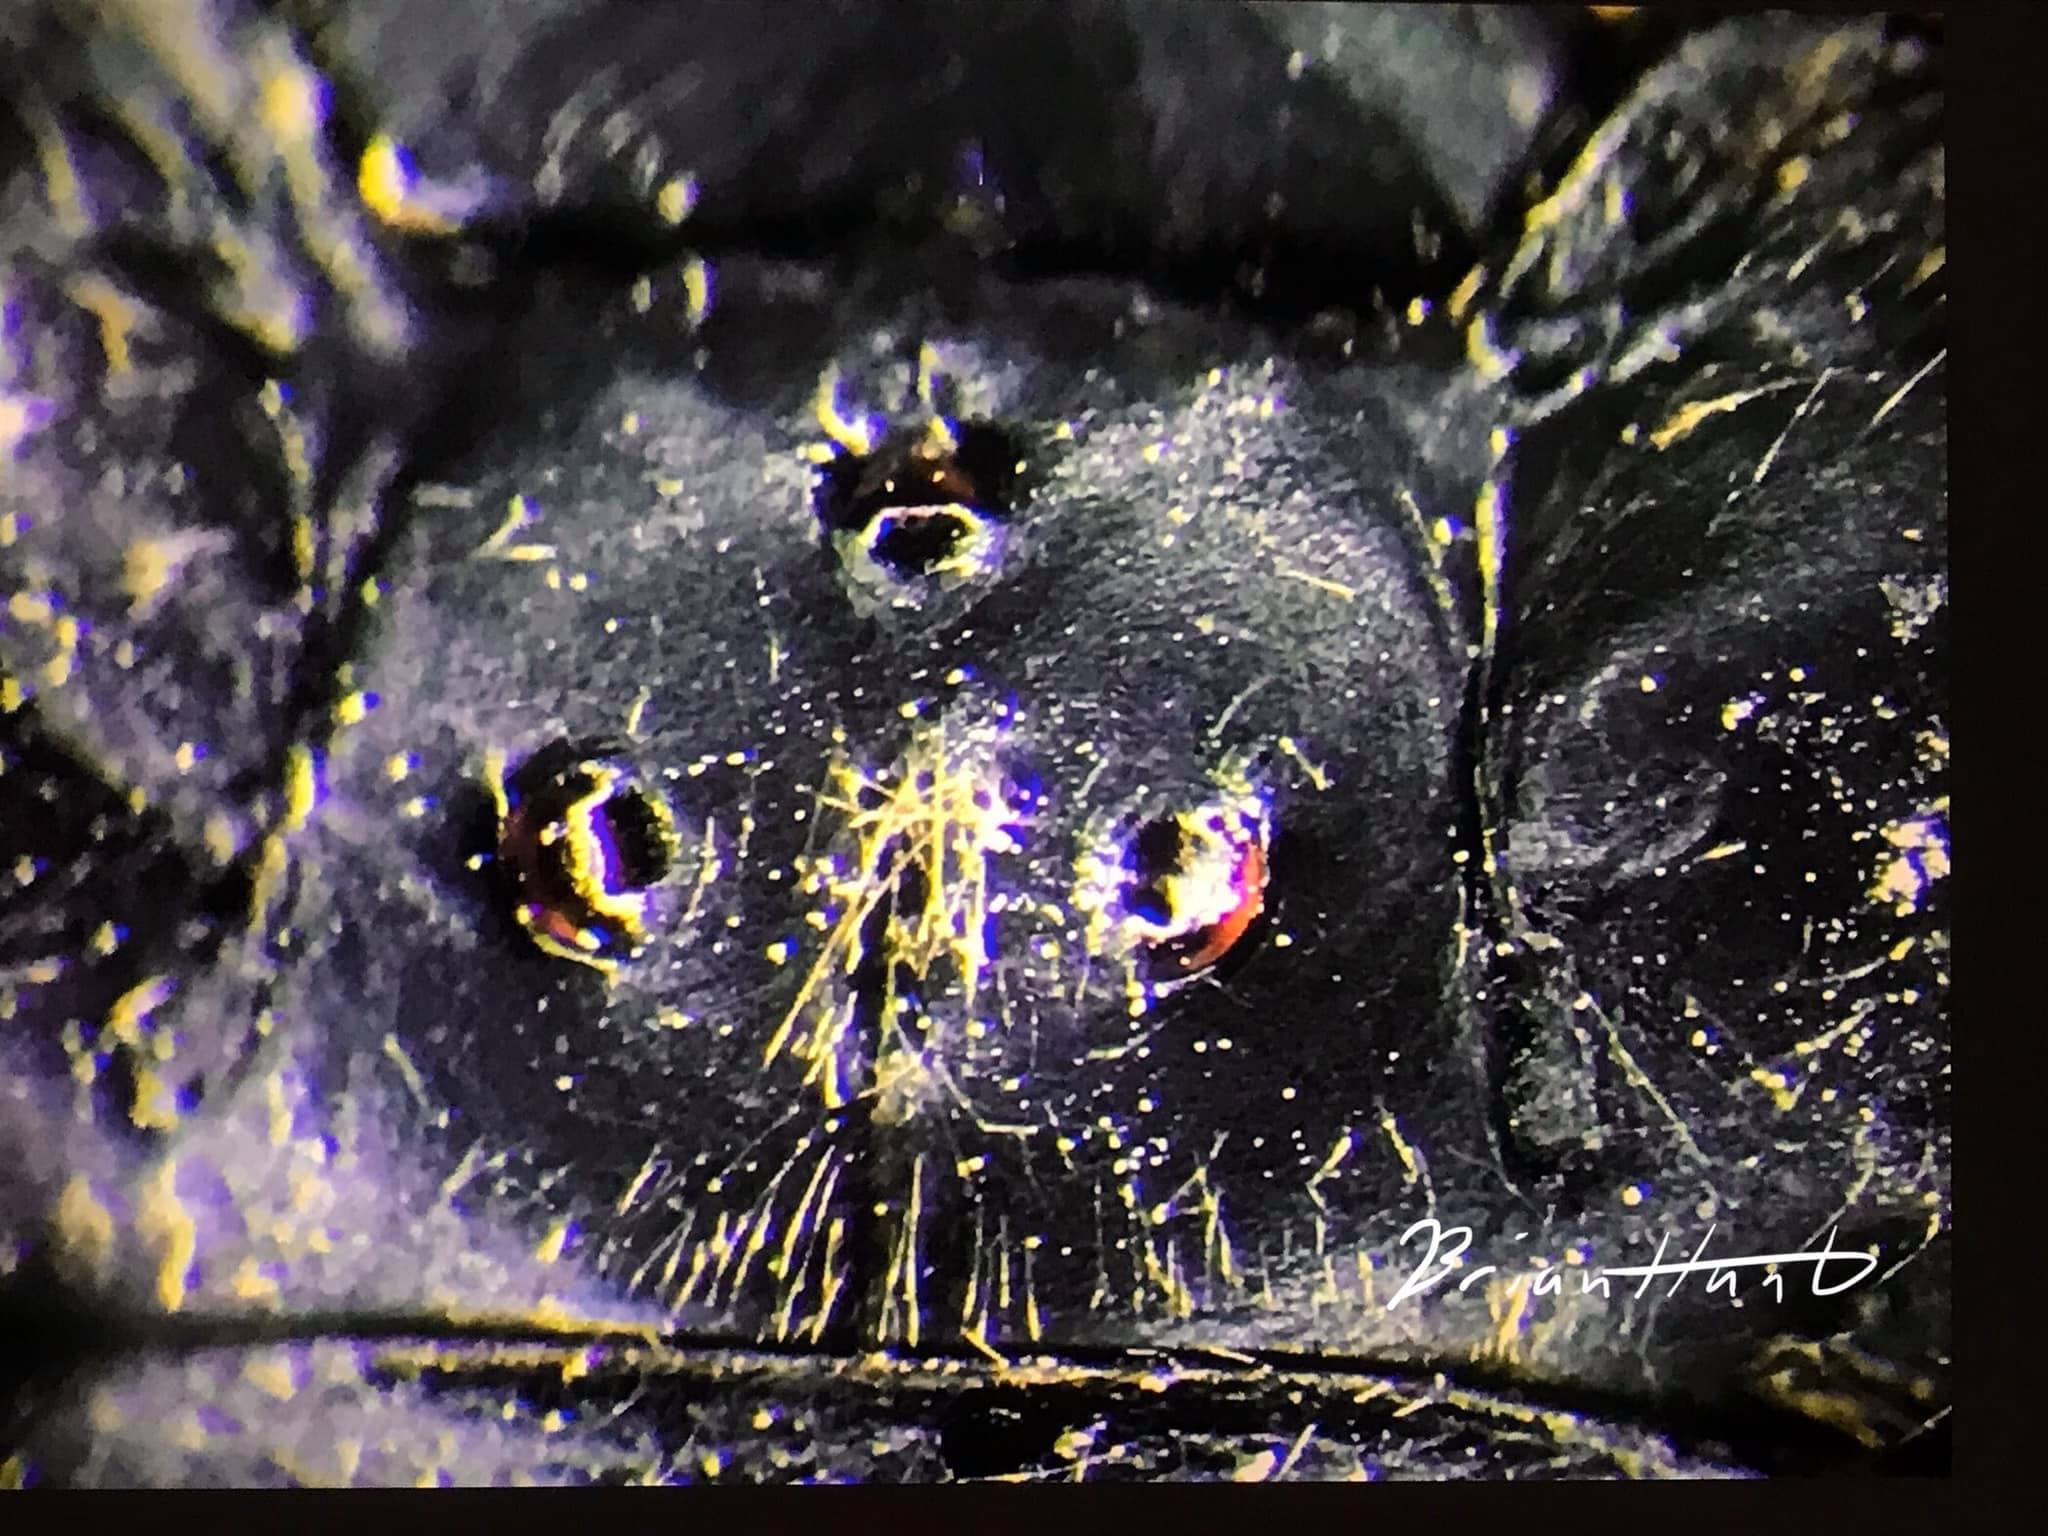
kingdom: Animalia
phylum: Arthropoda
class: Insecta
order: Hemiptera
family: Cicadidae
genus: Magicicada
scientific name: Magicicada septendecim
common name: Periodical cicada
